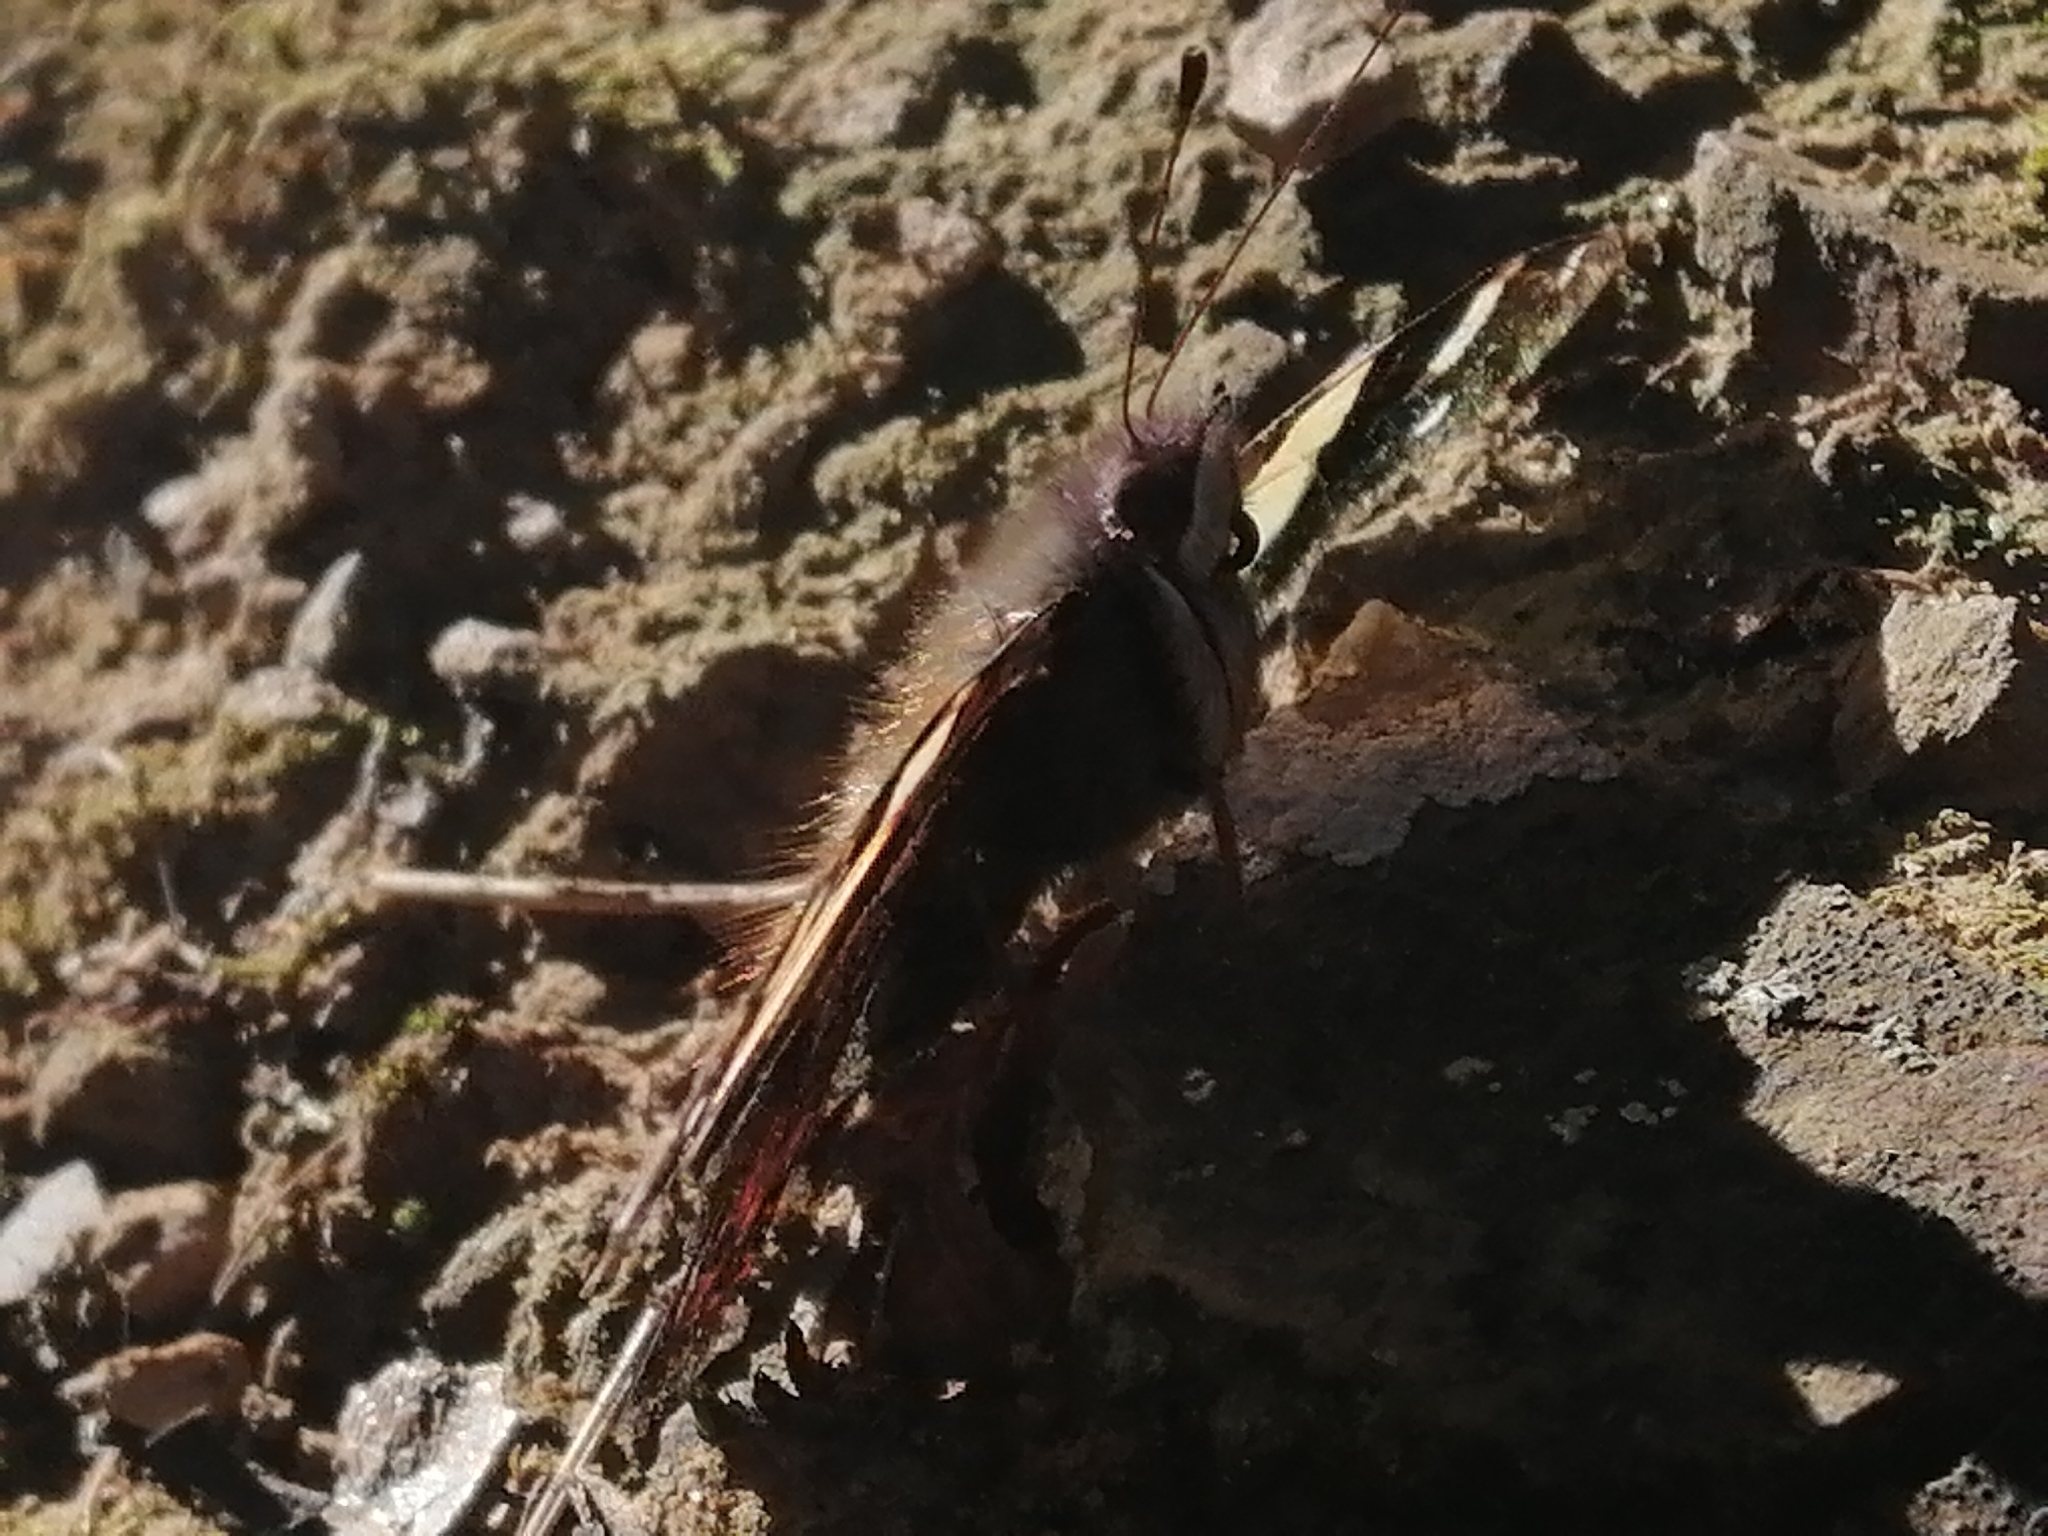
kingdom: Animalia
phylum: Arthropoda
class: Insecta
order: Lepidoptera
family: Nymphalidae
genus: Vanessa
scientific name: Vanessa itea
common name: Yellow admiral
